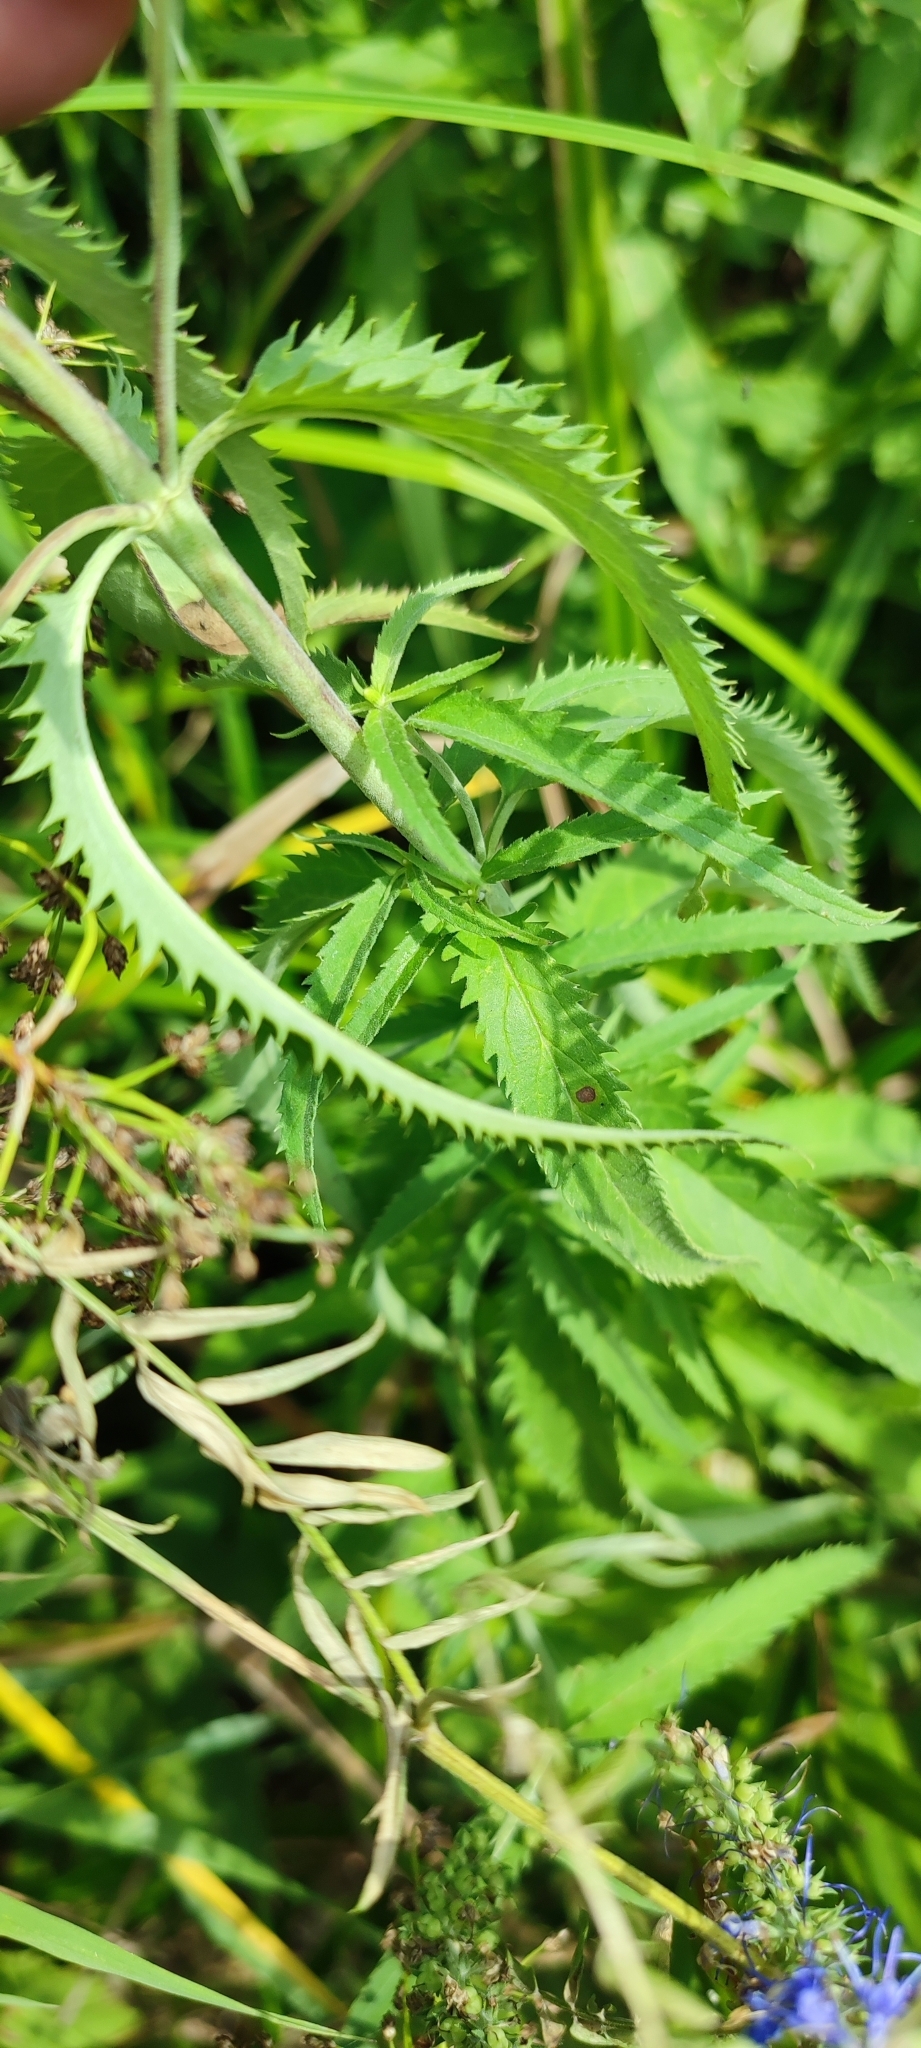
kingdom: Plantae
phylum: Tracheophyta
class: Magnoliopsida
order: Lamiales
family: Plantaginaceae
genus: Veronica
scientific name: Veronica longifolia
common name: Garden speedwell
